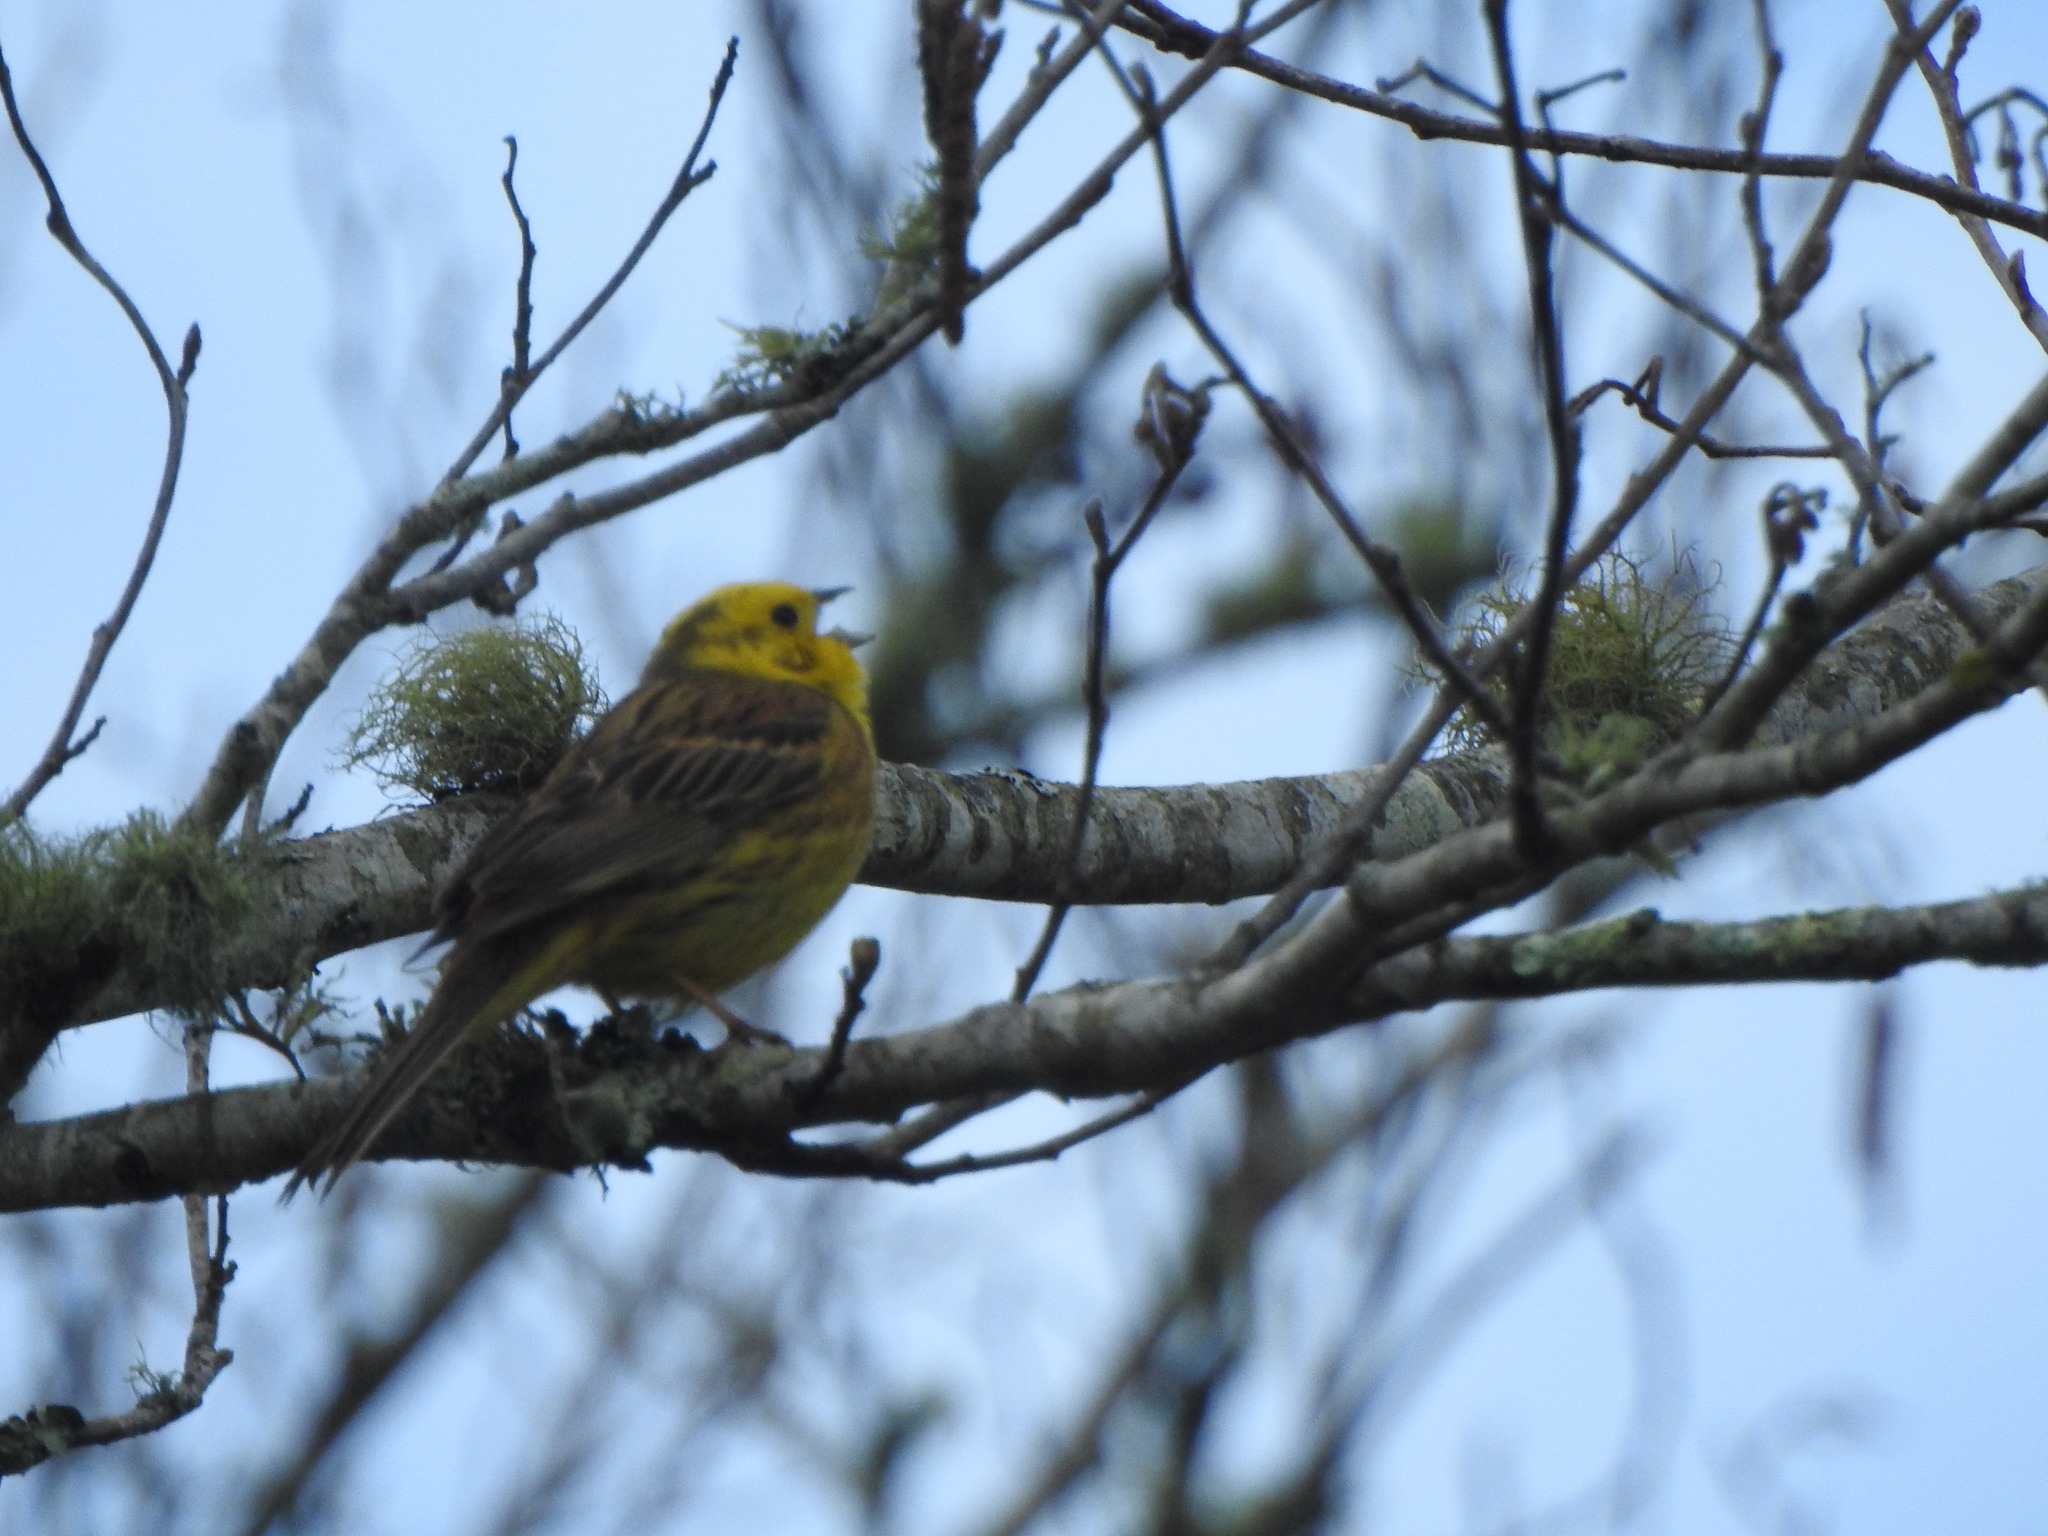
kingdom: Animalia
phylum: Chordata
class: Aves
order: Passeriformes
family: Emberizidae
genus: Emberiza
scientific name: Emberiza citrinella
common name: Yellowhammer
